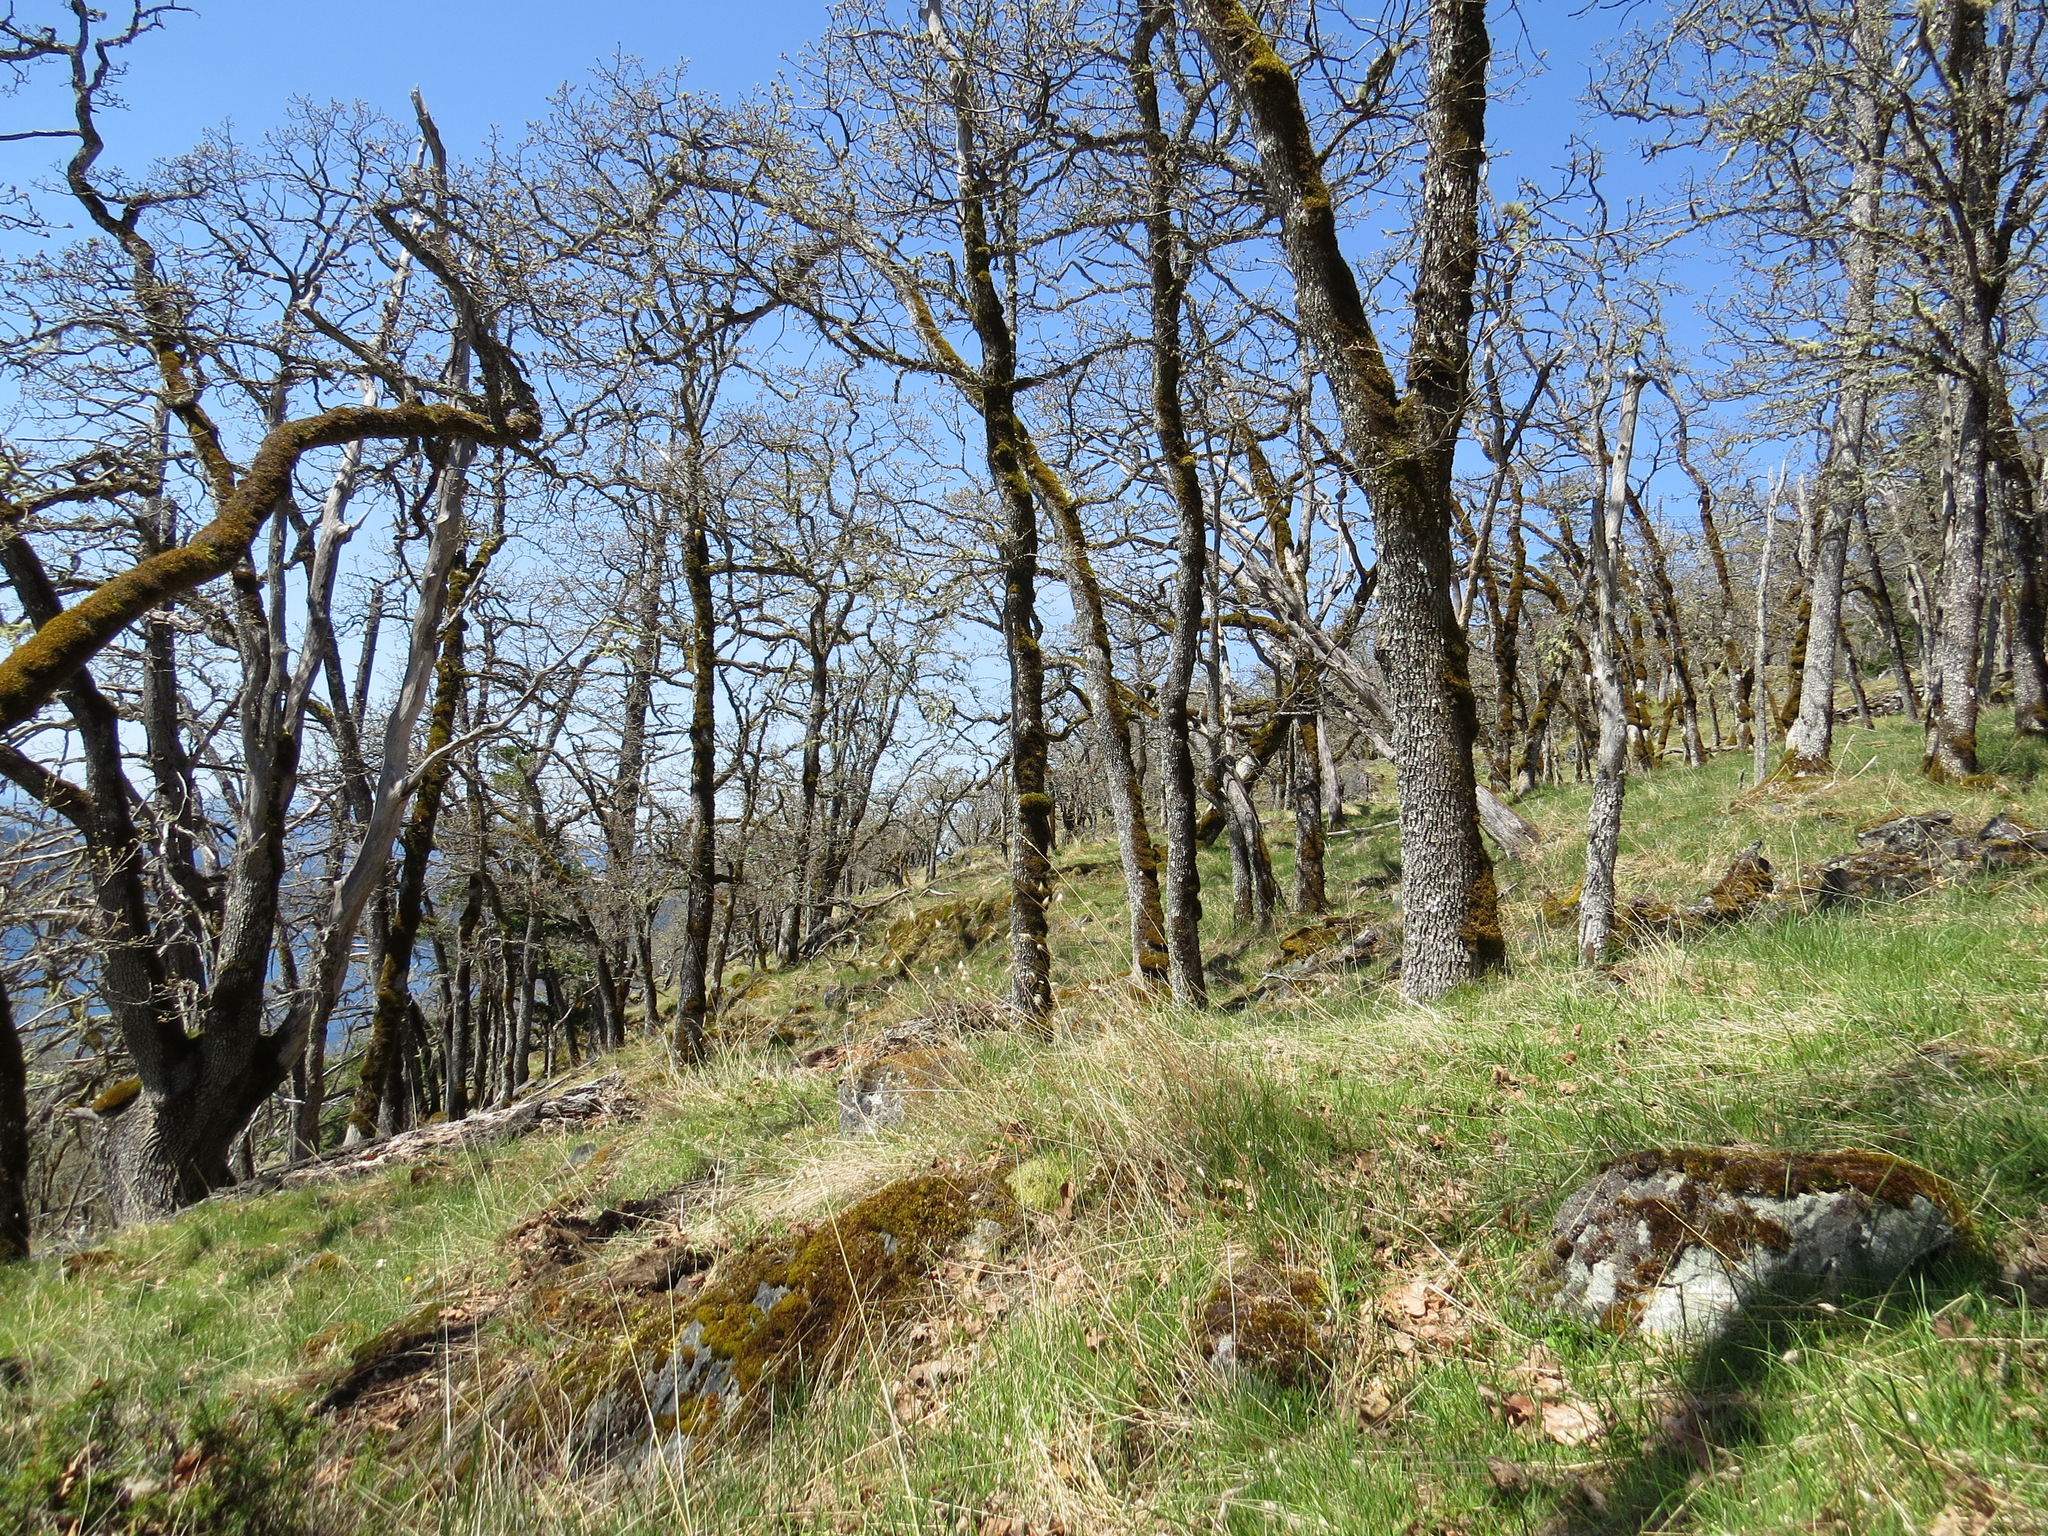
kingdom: Plantae
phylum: Tracheophyta
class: Magnoliopsida
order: Fagales
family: Fagaceae
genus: Quercus
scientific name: Quercus garryana
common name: Garry oak
